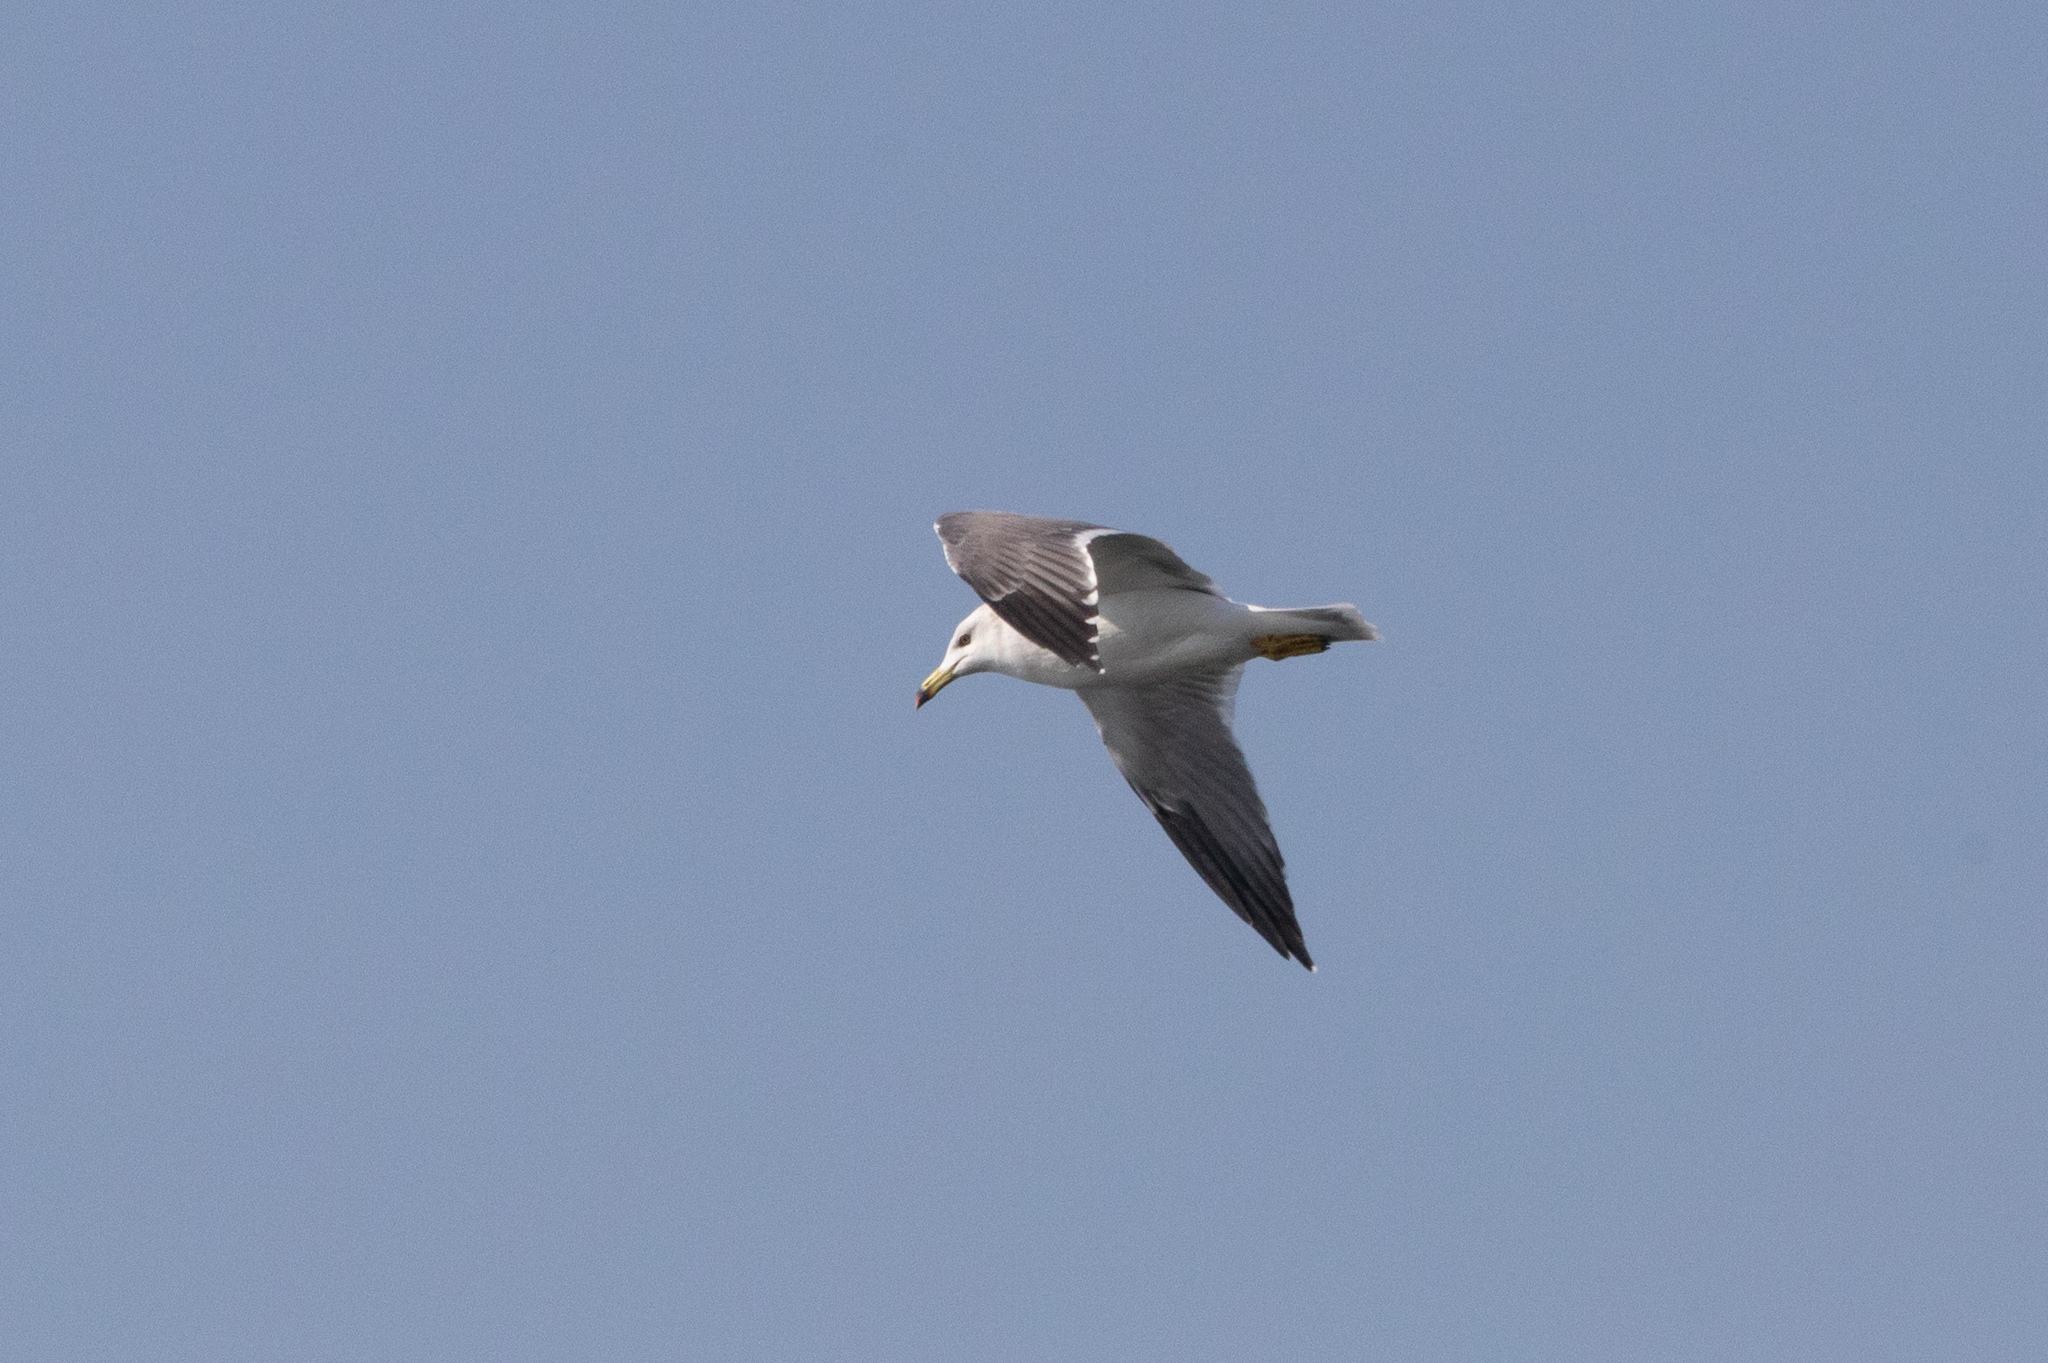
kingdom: Animalia
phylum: Chordata
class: Aves
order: Charadriiformes
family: Laridae
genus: Larus
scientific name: Larus crassirostris
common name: Black-tailed gull
